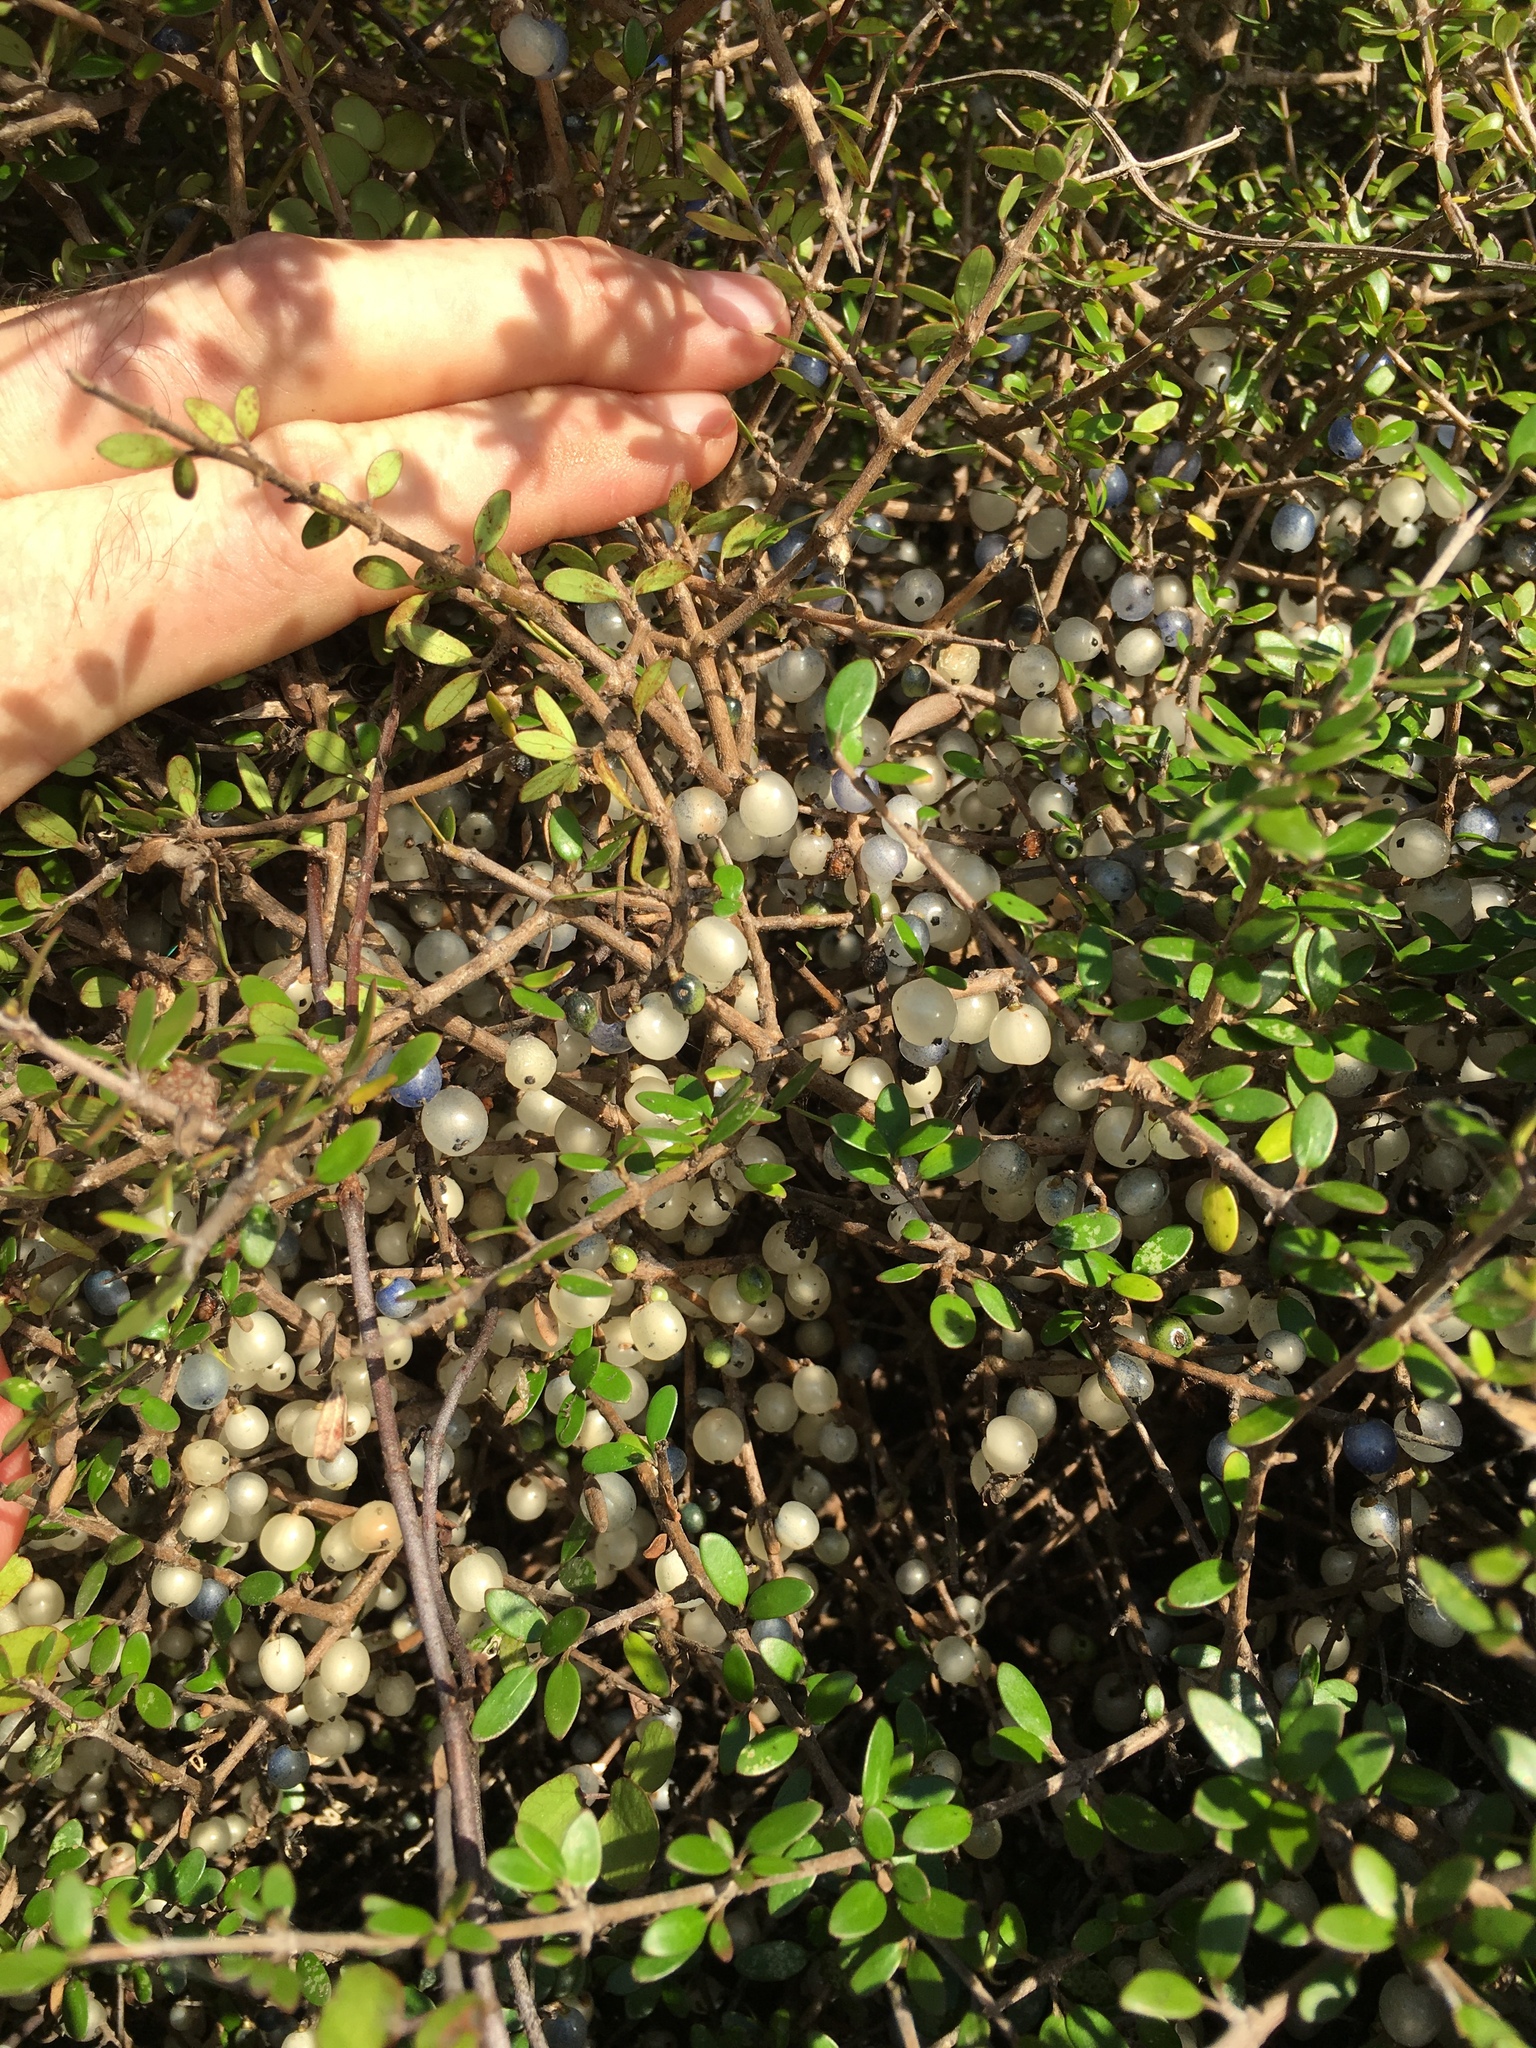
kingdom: Plantae
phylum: Tracheophyta
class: Magnoliopsida
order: Gentianales
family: Rubiaceae
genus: Coprosma
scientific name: Coprosma propinqua
